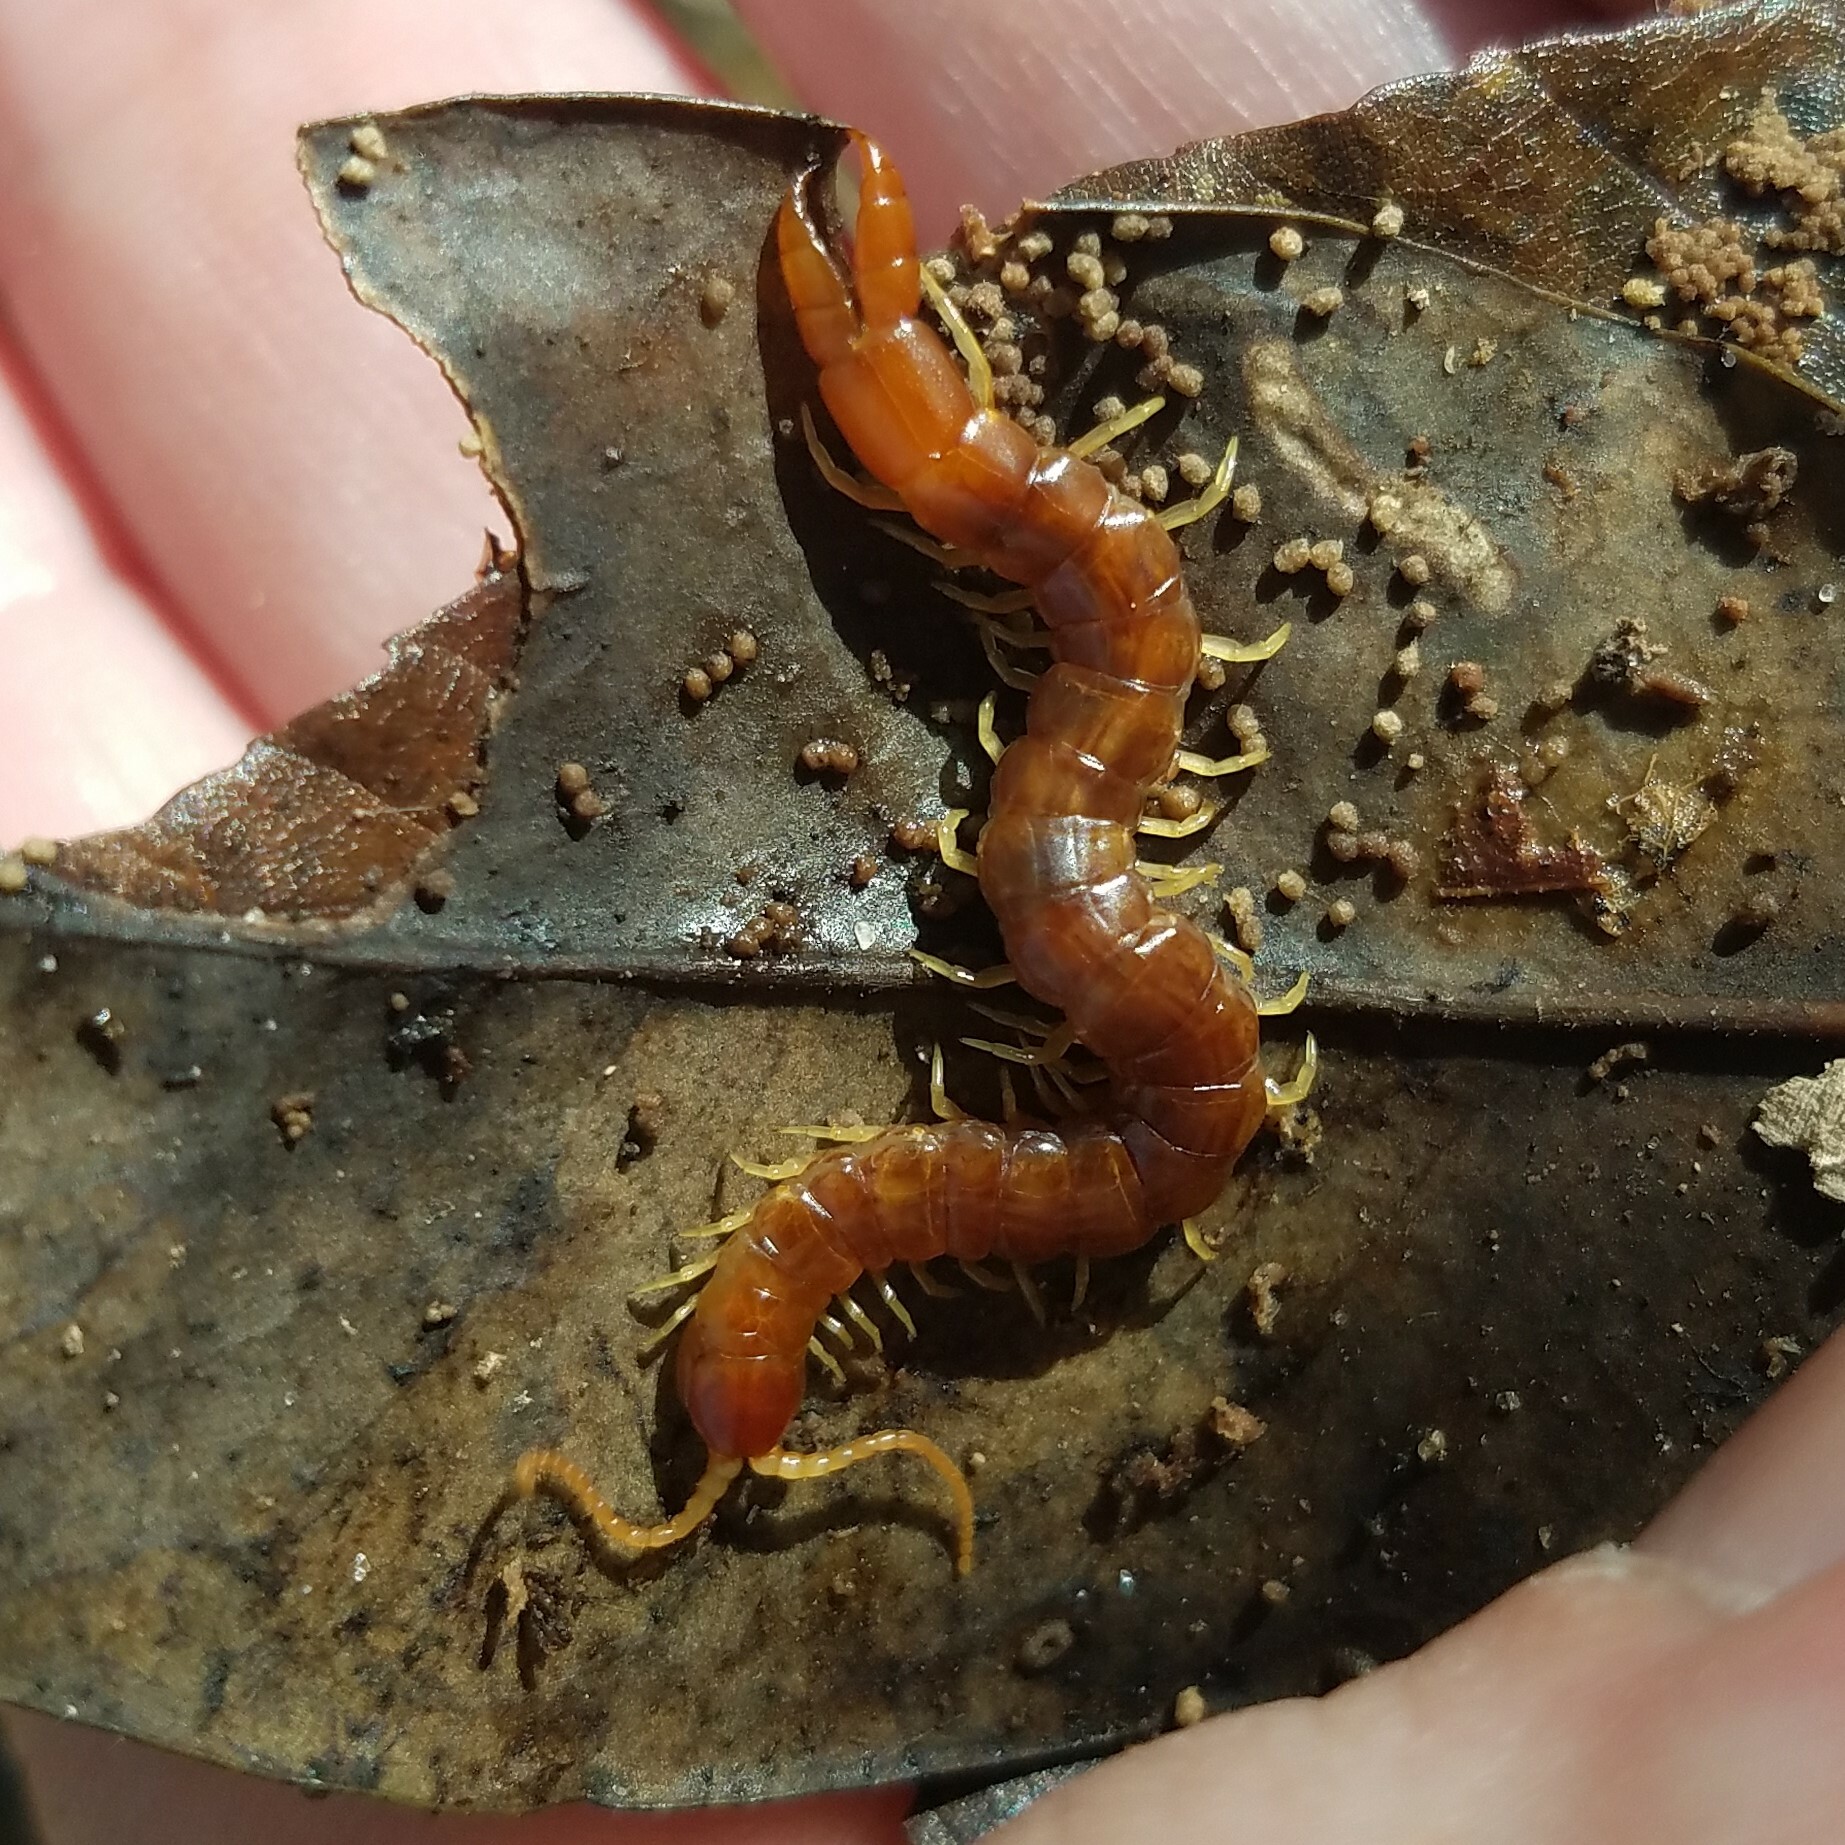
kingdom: Animalia
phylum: Arthropoda
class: Chilopoda
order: Scolopendromorpha
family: Cryptopidae
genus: Theatops
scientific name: Theatops posticus
